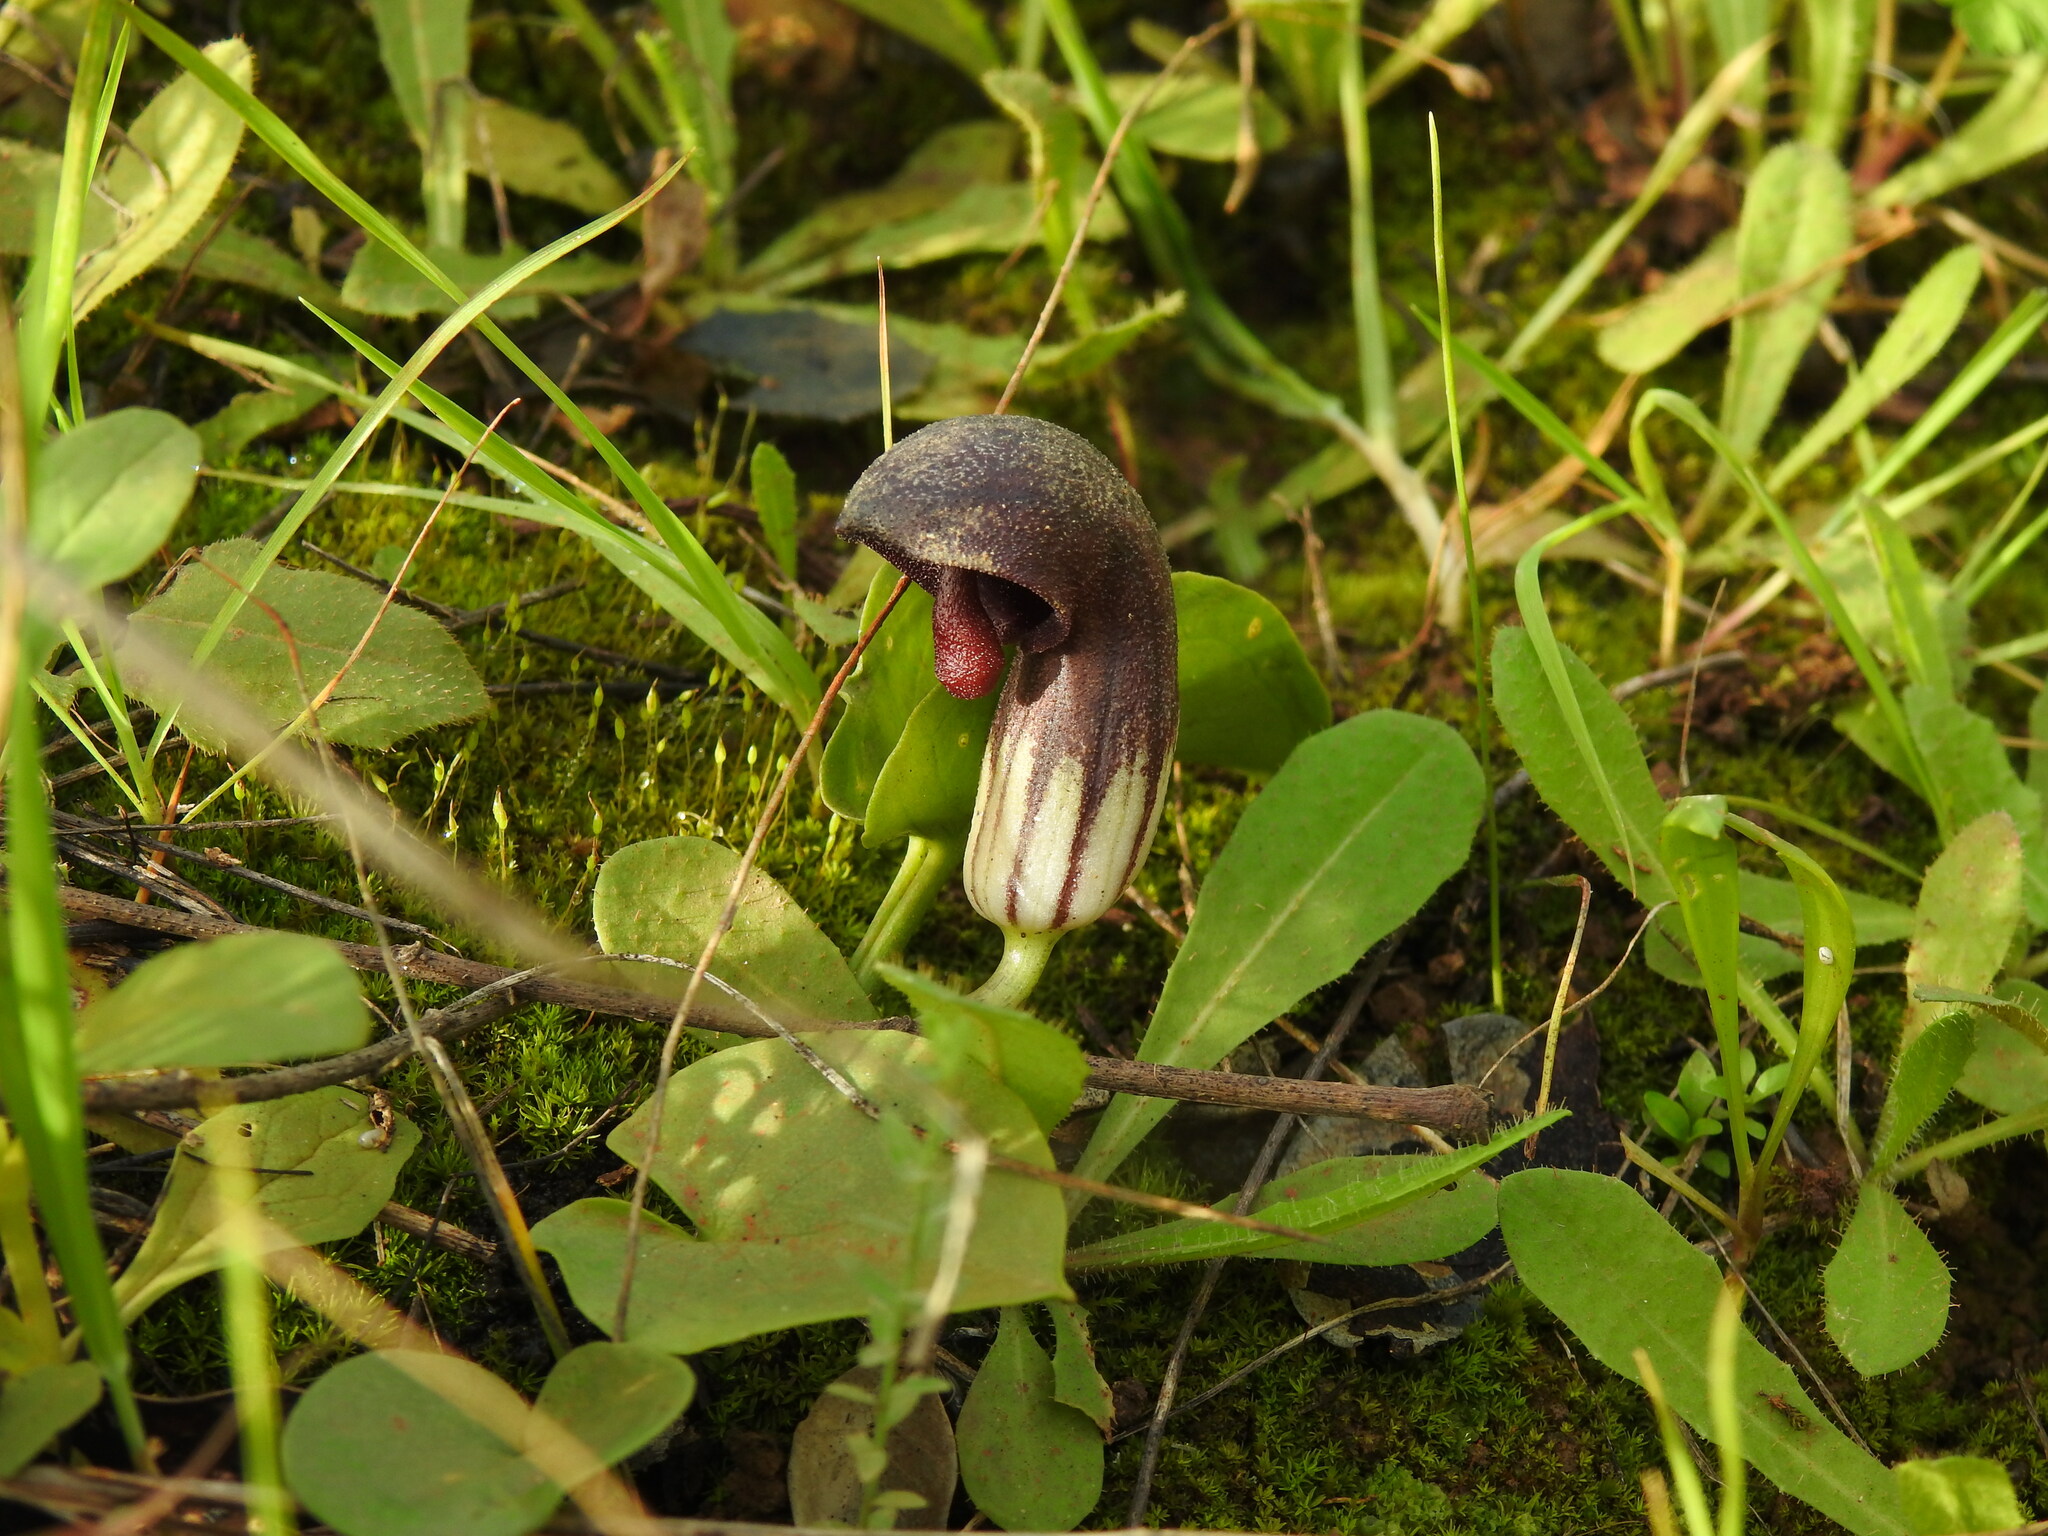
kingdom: Plantae
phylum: Tracheophyta
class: Liliopsida
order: Alismatales
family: Araceae
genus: Arisarum
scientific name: Arisarum simorrhinum
